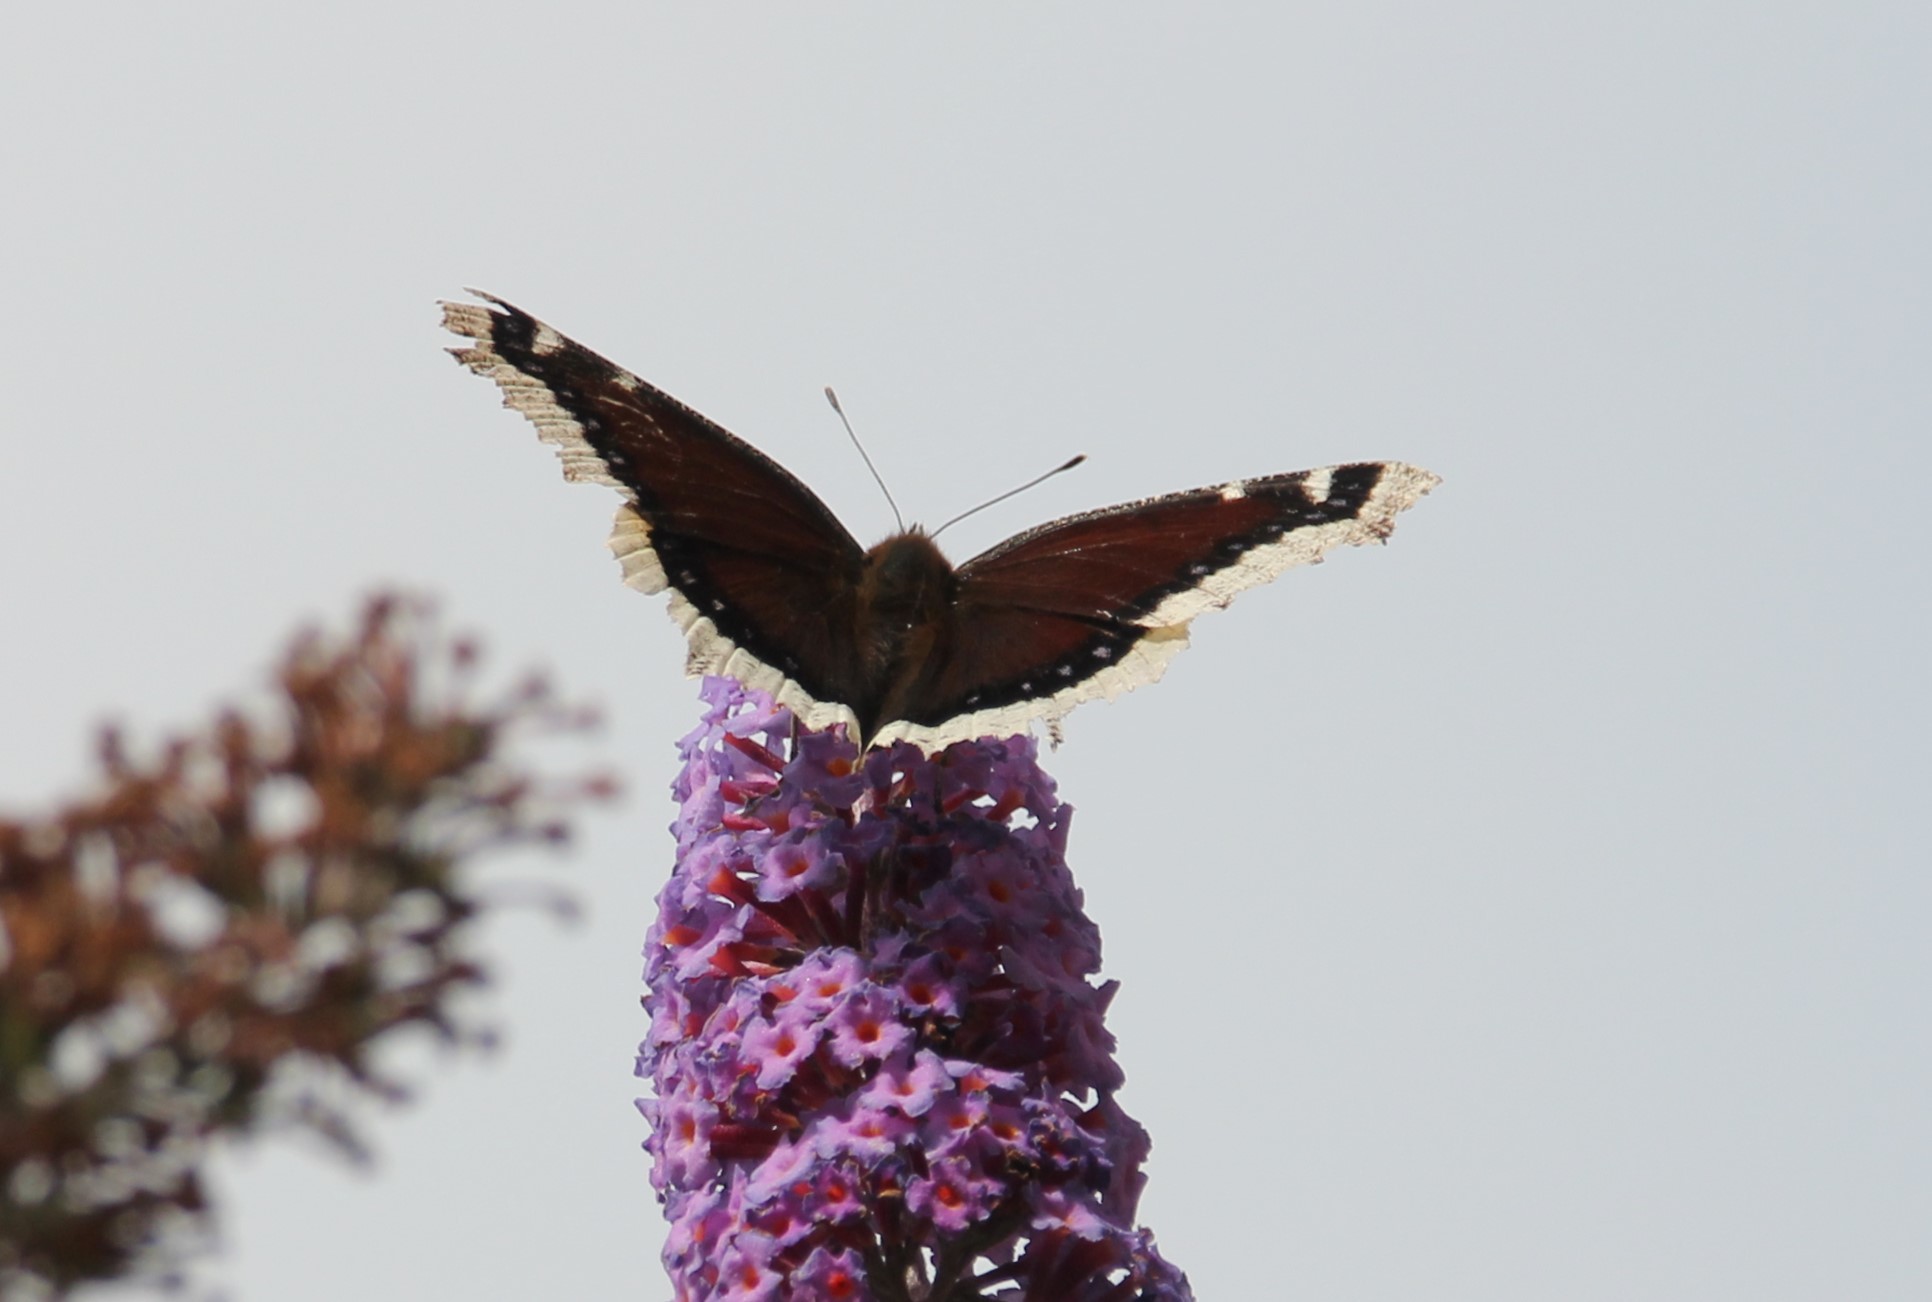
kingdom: Animalia
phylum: Arthropoda
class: Insecta
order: Lepidoptera
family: Nymphalidae
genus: Nymphalis
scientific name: Nymphalis antiopa
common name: Camberwell beauty
